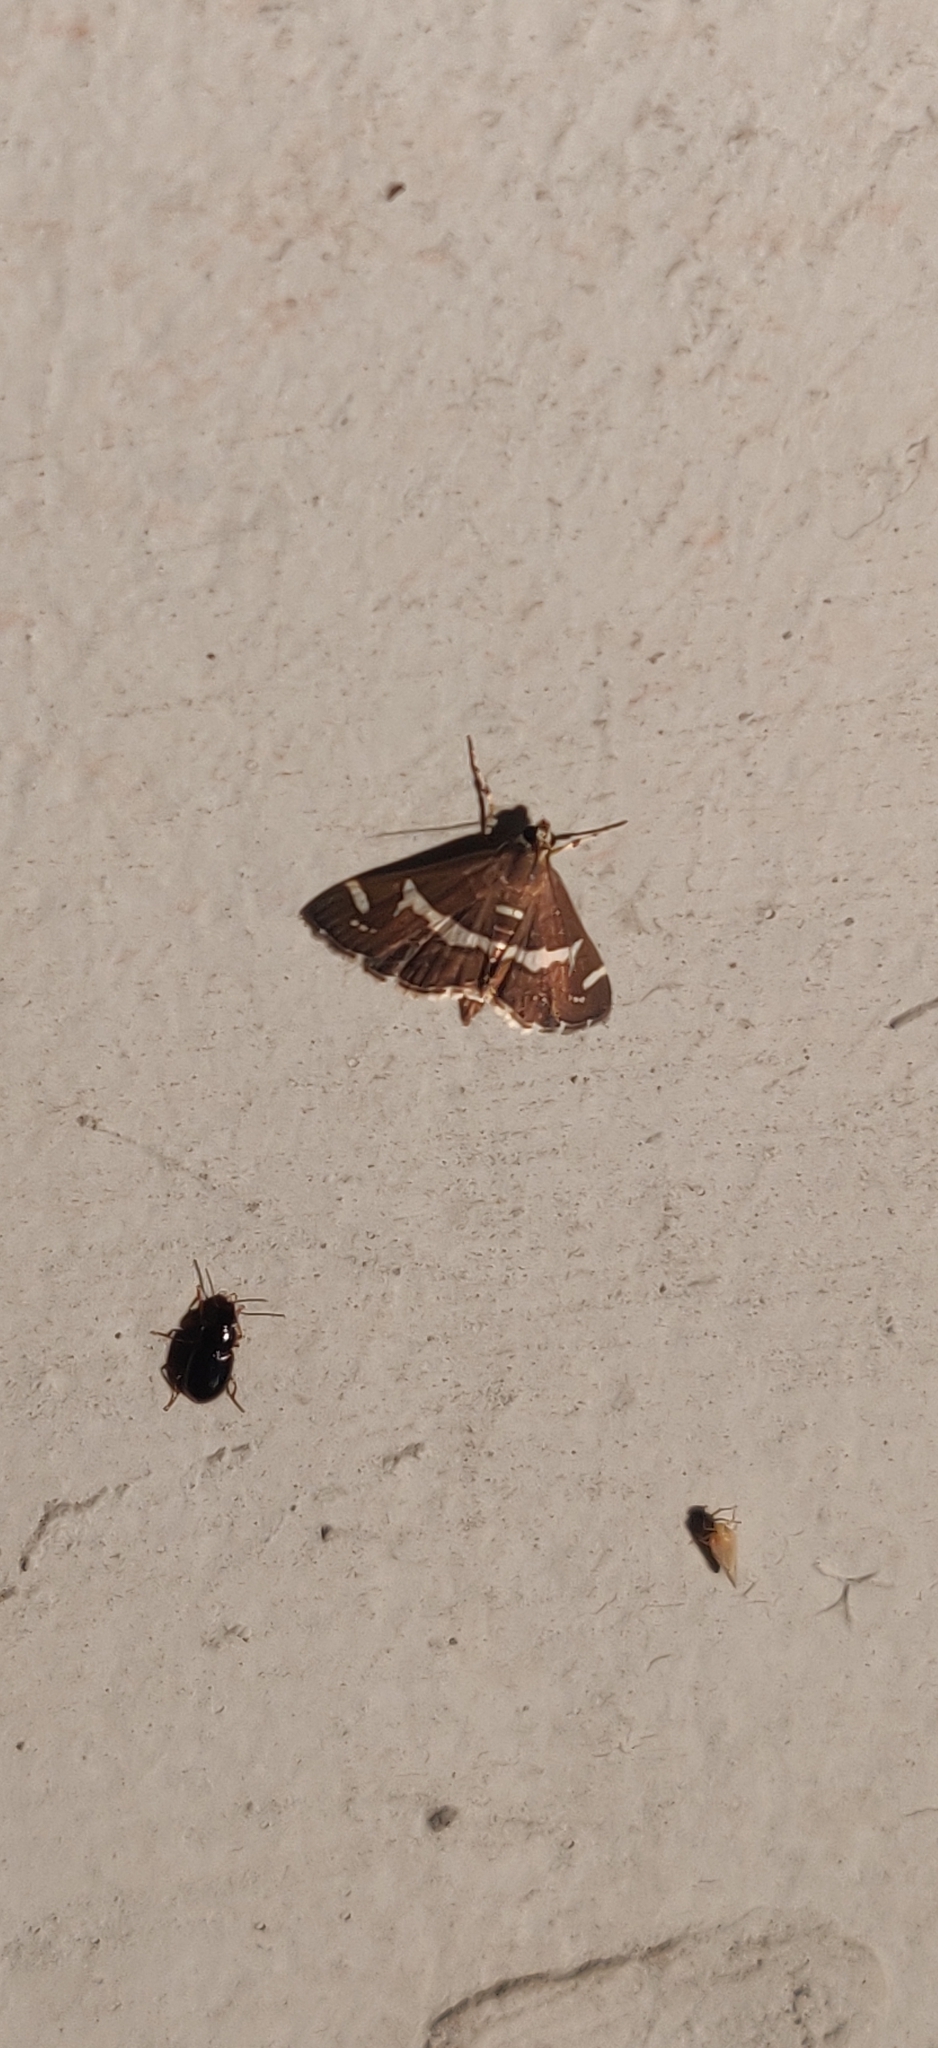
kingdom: Animalia
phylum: Arthropoda
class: Insecta
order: Lepidoptera
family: Crambidae
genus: Spoladea
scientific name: Spoladea recurvalis
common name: Beet webworm moth
